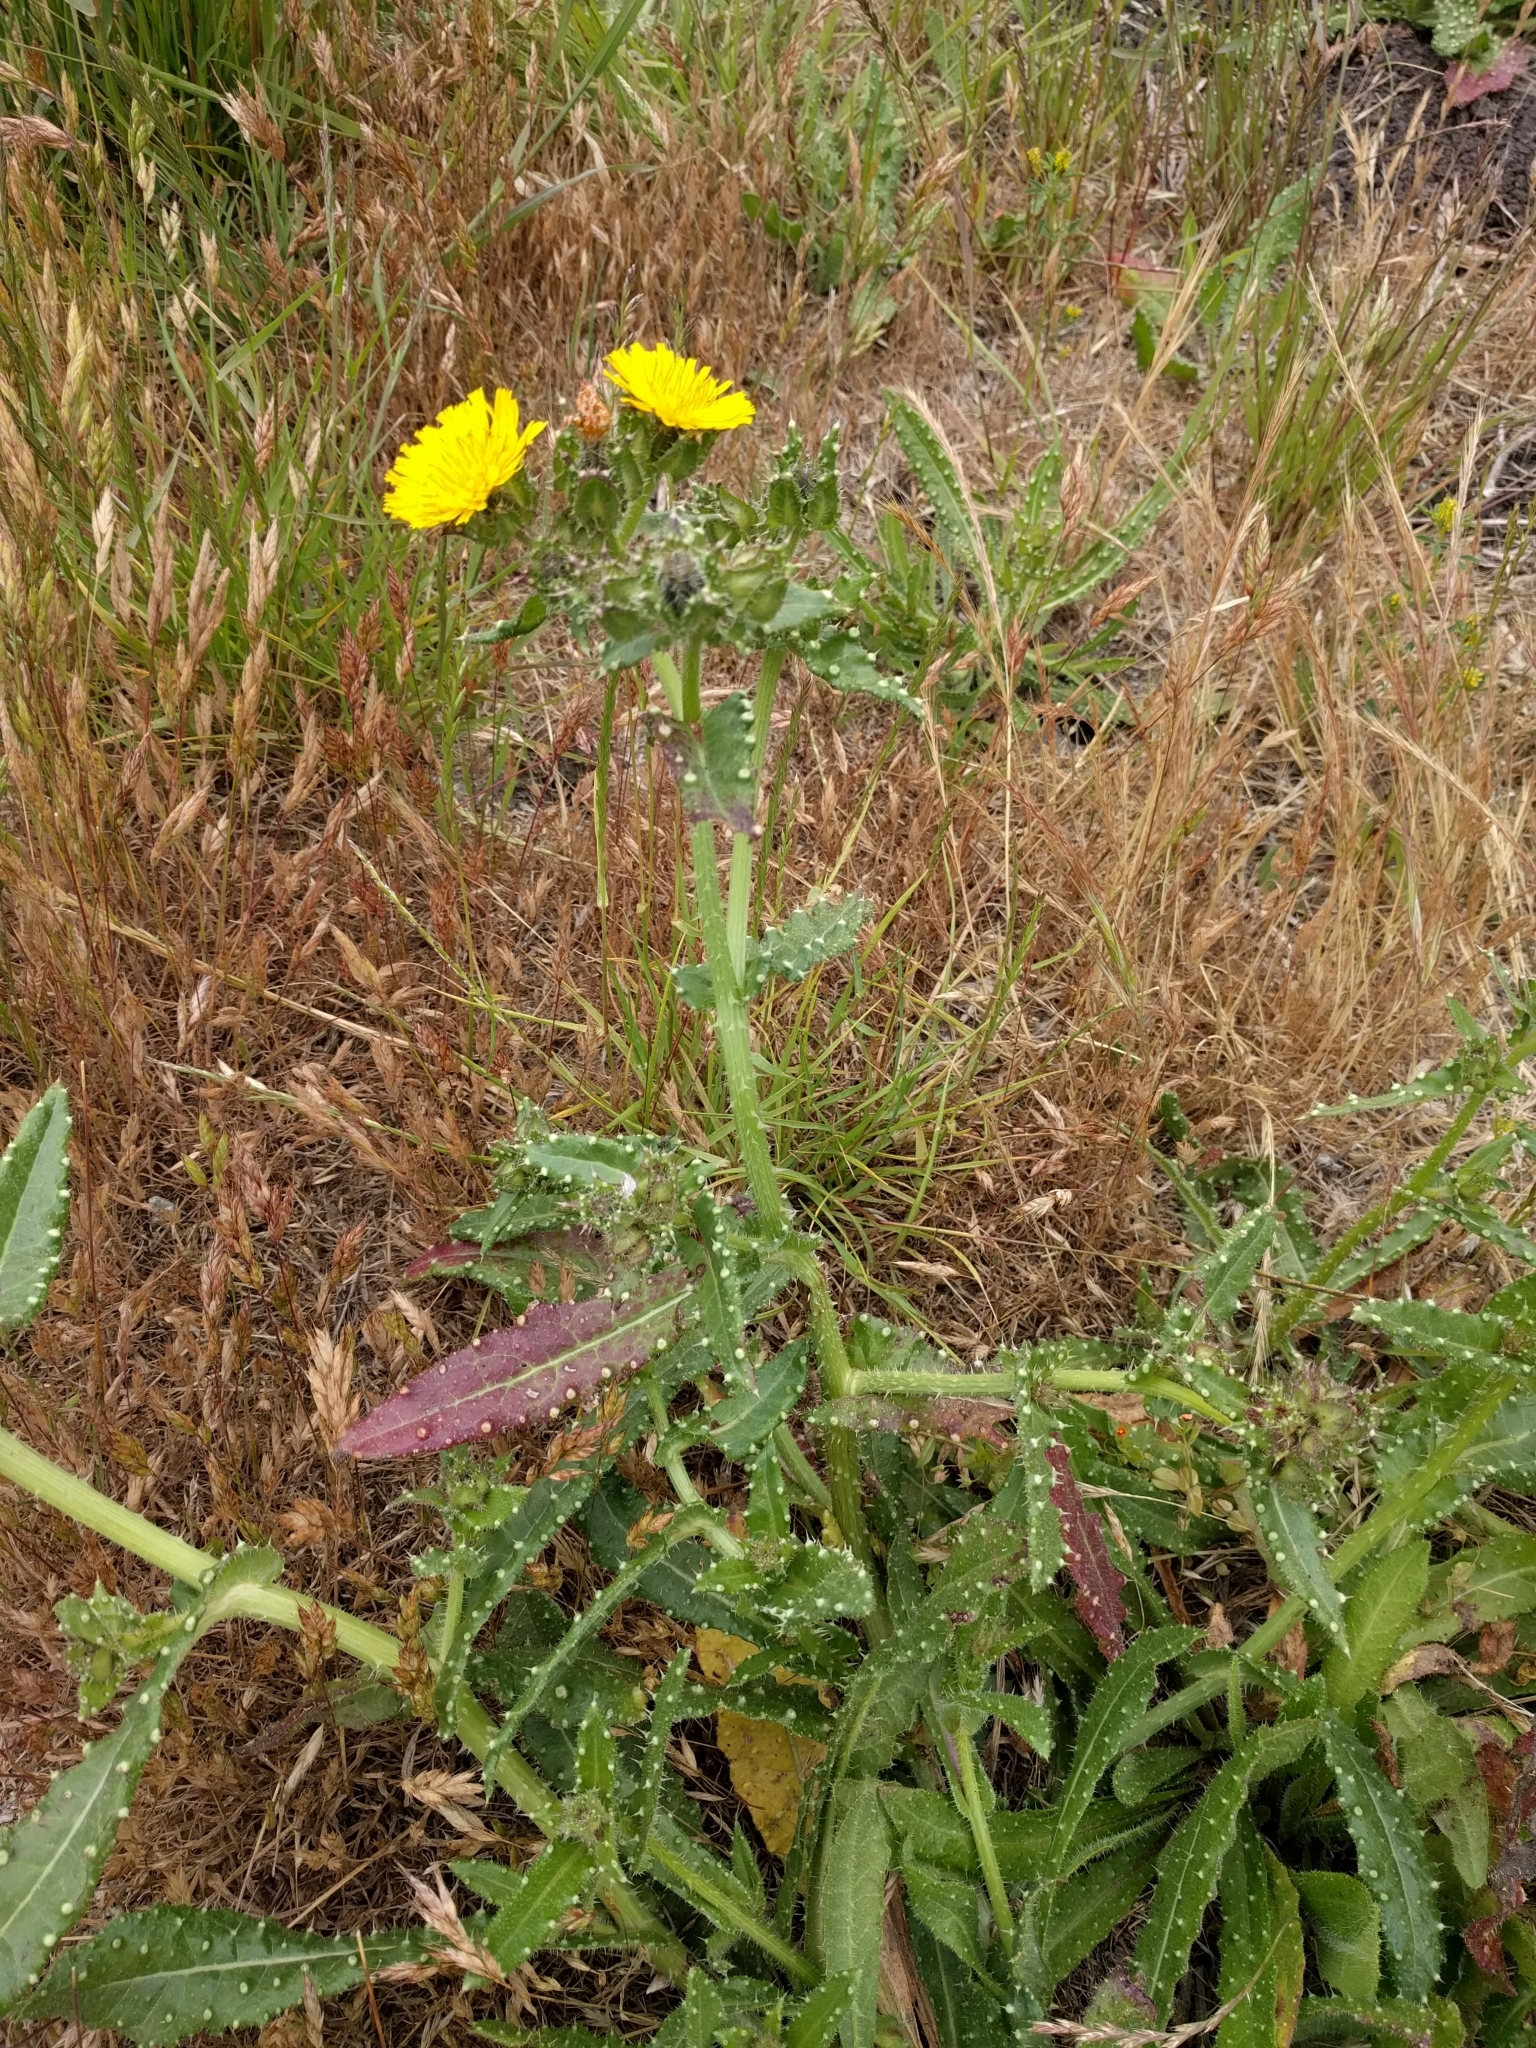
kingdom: Plantae
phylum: Tracheophyta
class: Magnoliopsida
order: Asterales
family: Asteraceae
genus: Helminthotheca
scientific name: Helminthotheca echioides
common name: Ox-tongue
